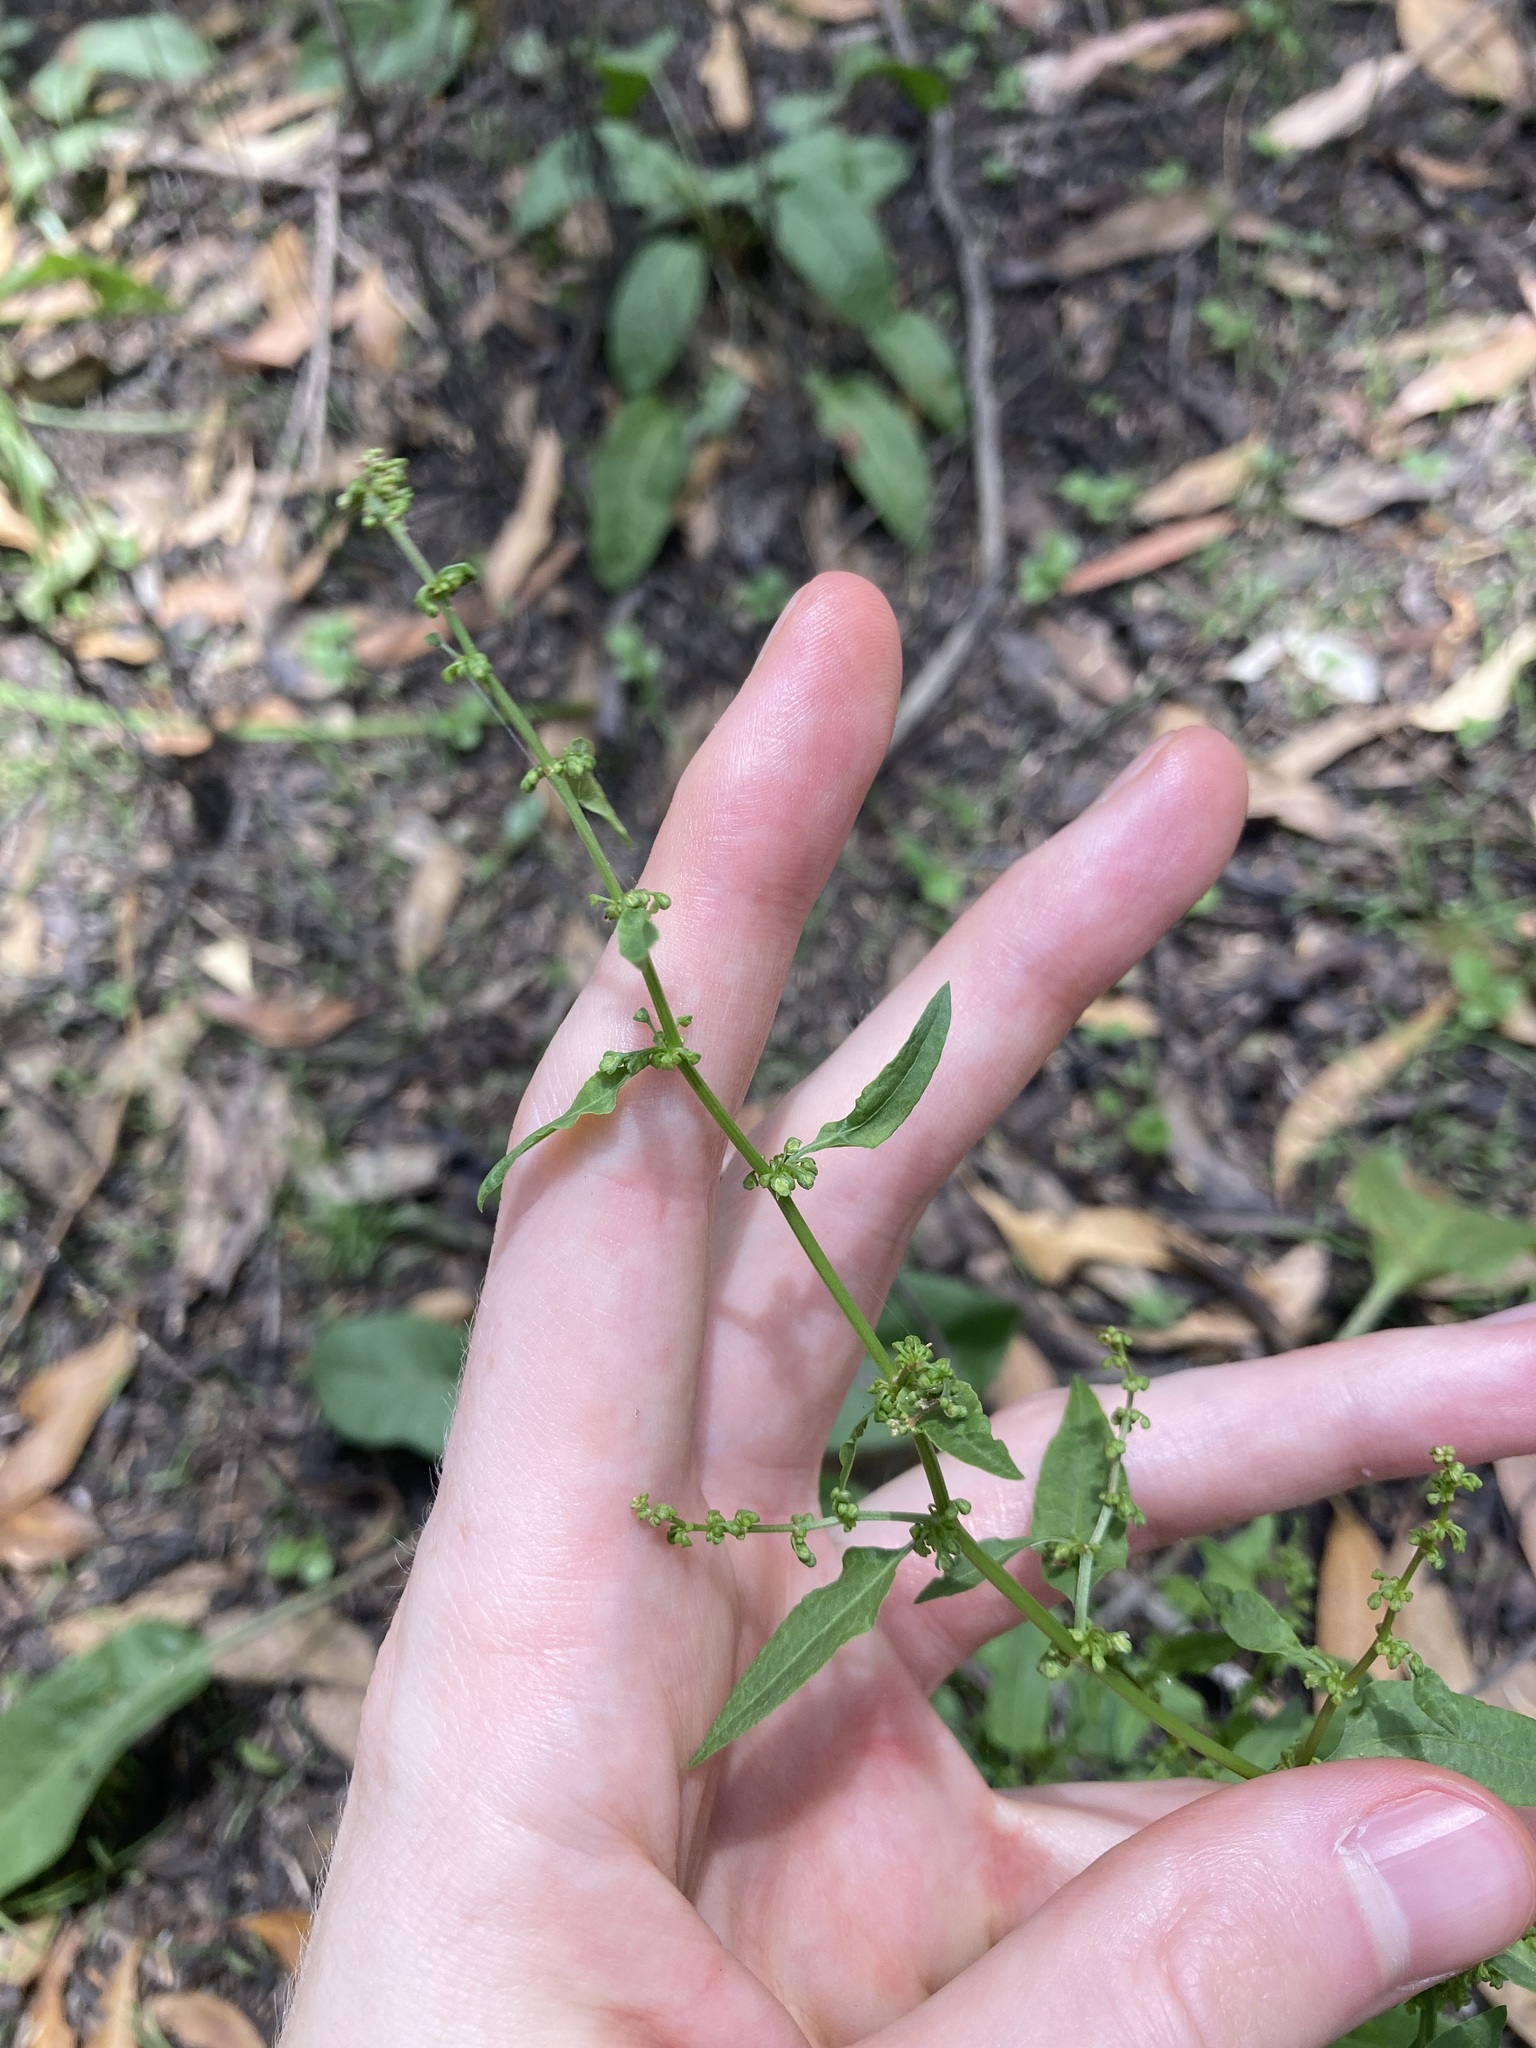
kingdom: Plantae
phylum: Tracheophyta
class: Magnoliopsida
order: Caryophyllales
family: Polygonaceae
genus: Rumex
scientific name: Rumex conglomeratus
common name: Clustered dock
